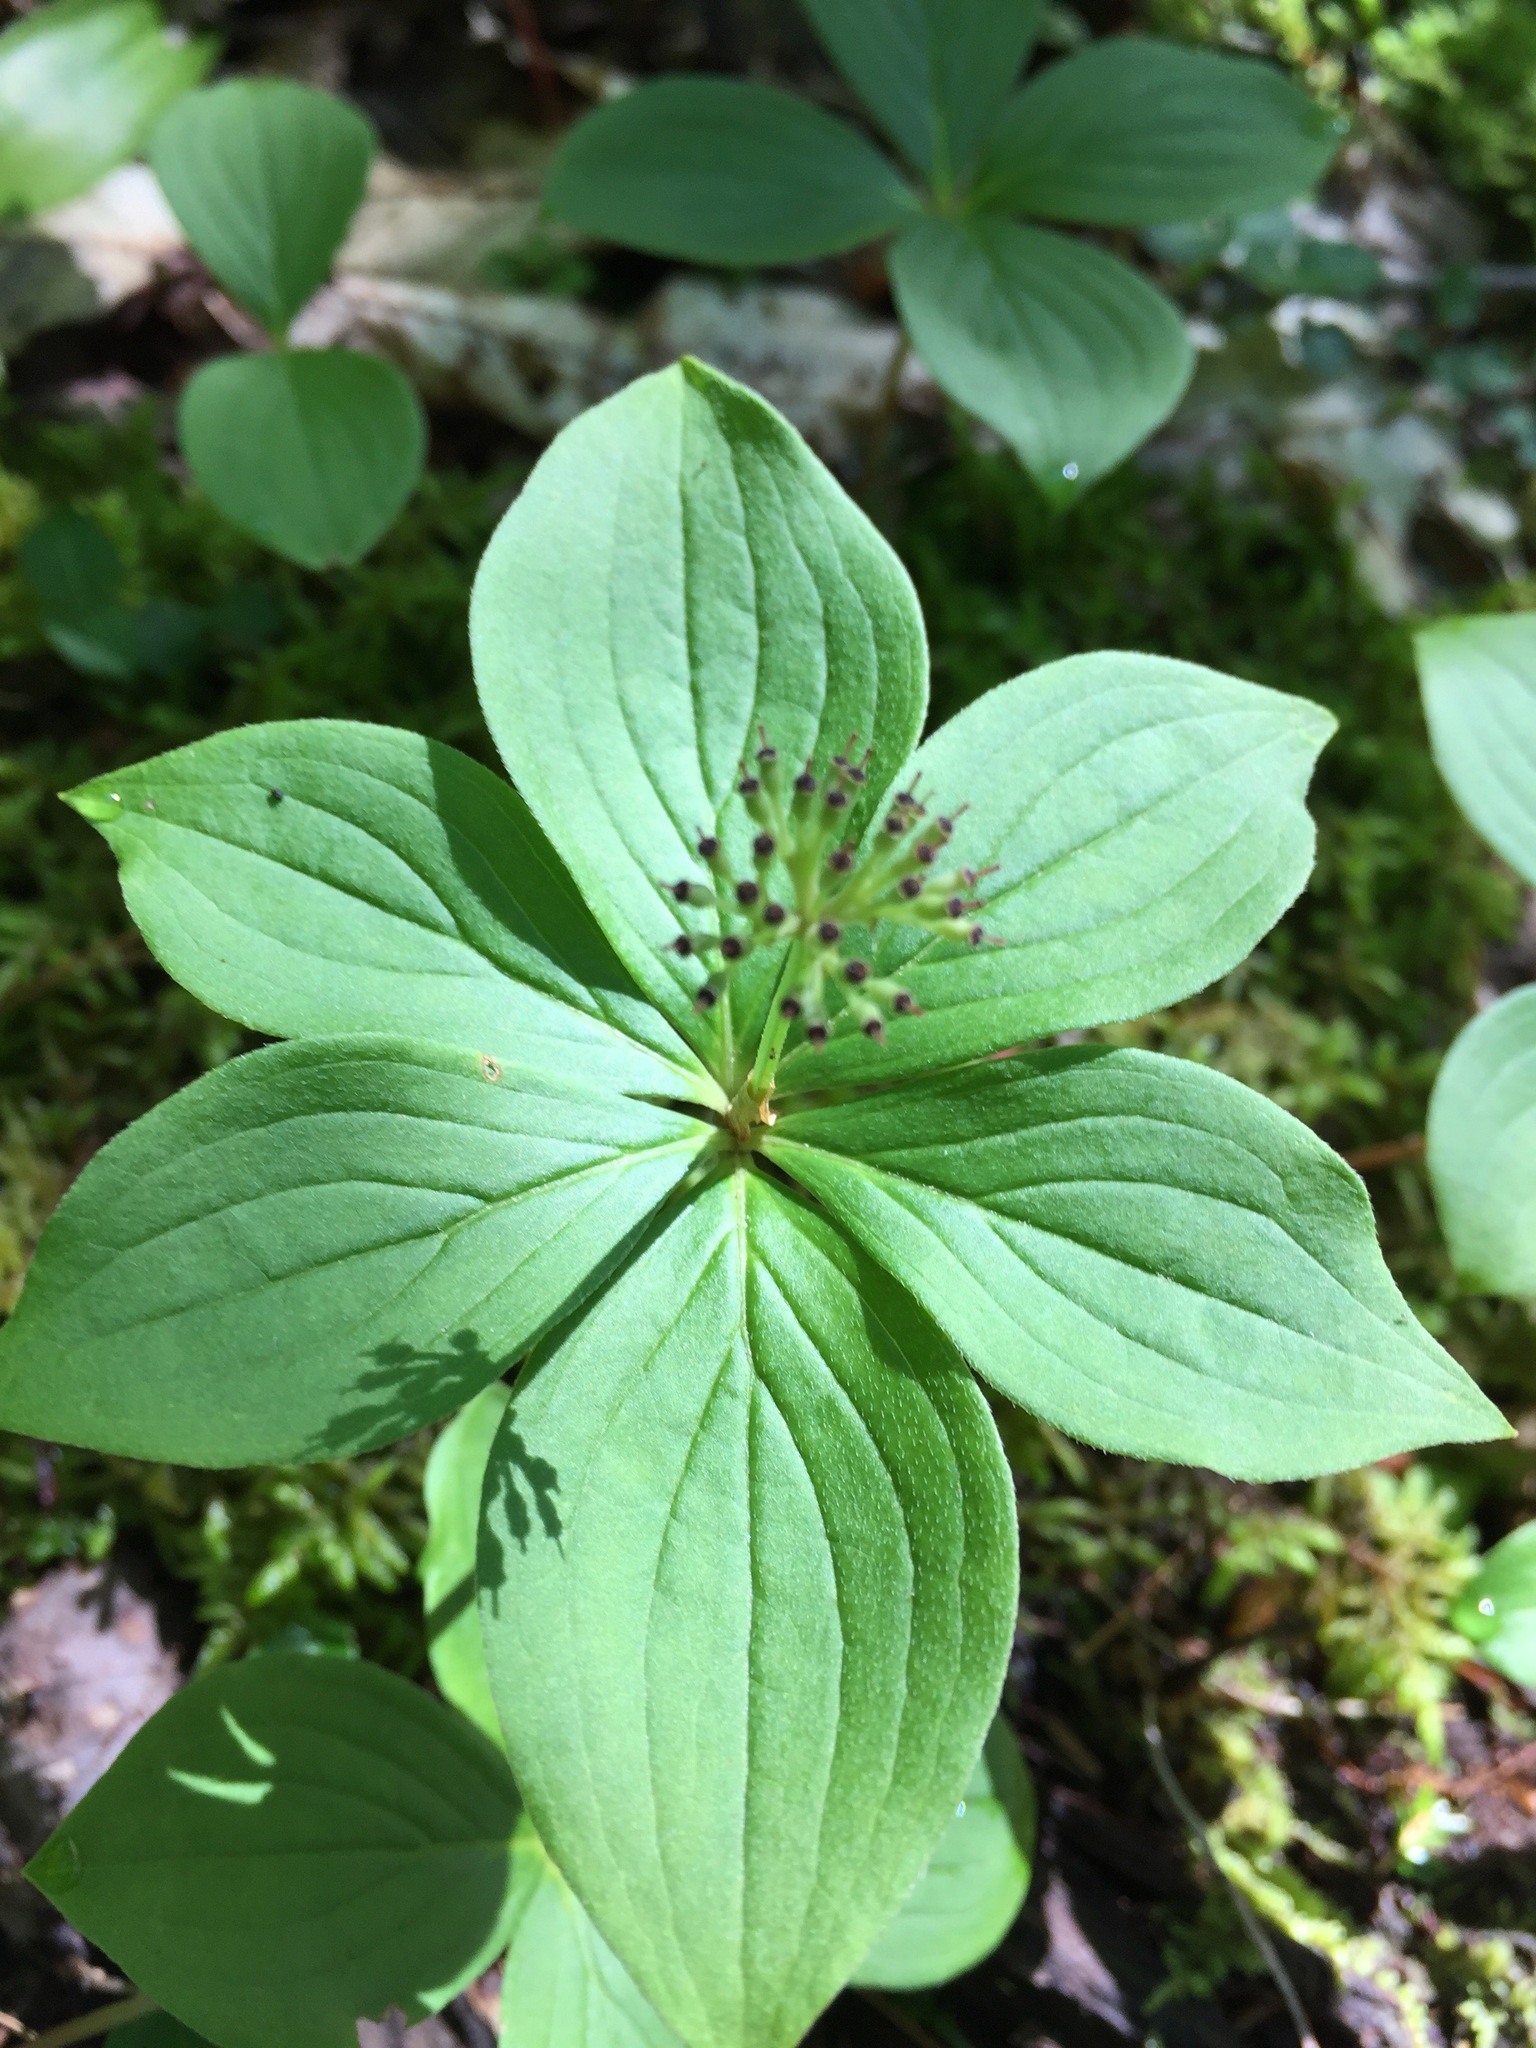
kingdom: Plantae
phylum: Tracheophyta
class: Magnoliopsida
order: Cornales
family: Cornaceae
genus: Cornus
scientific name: Cornus canadensis
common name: Creeping dogwood
